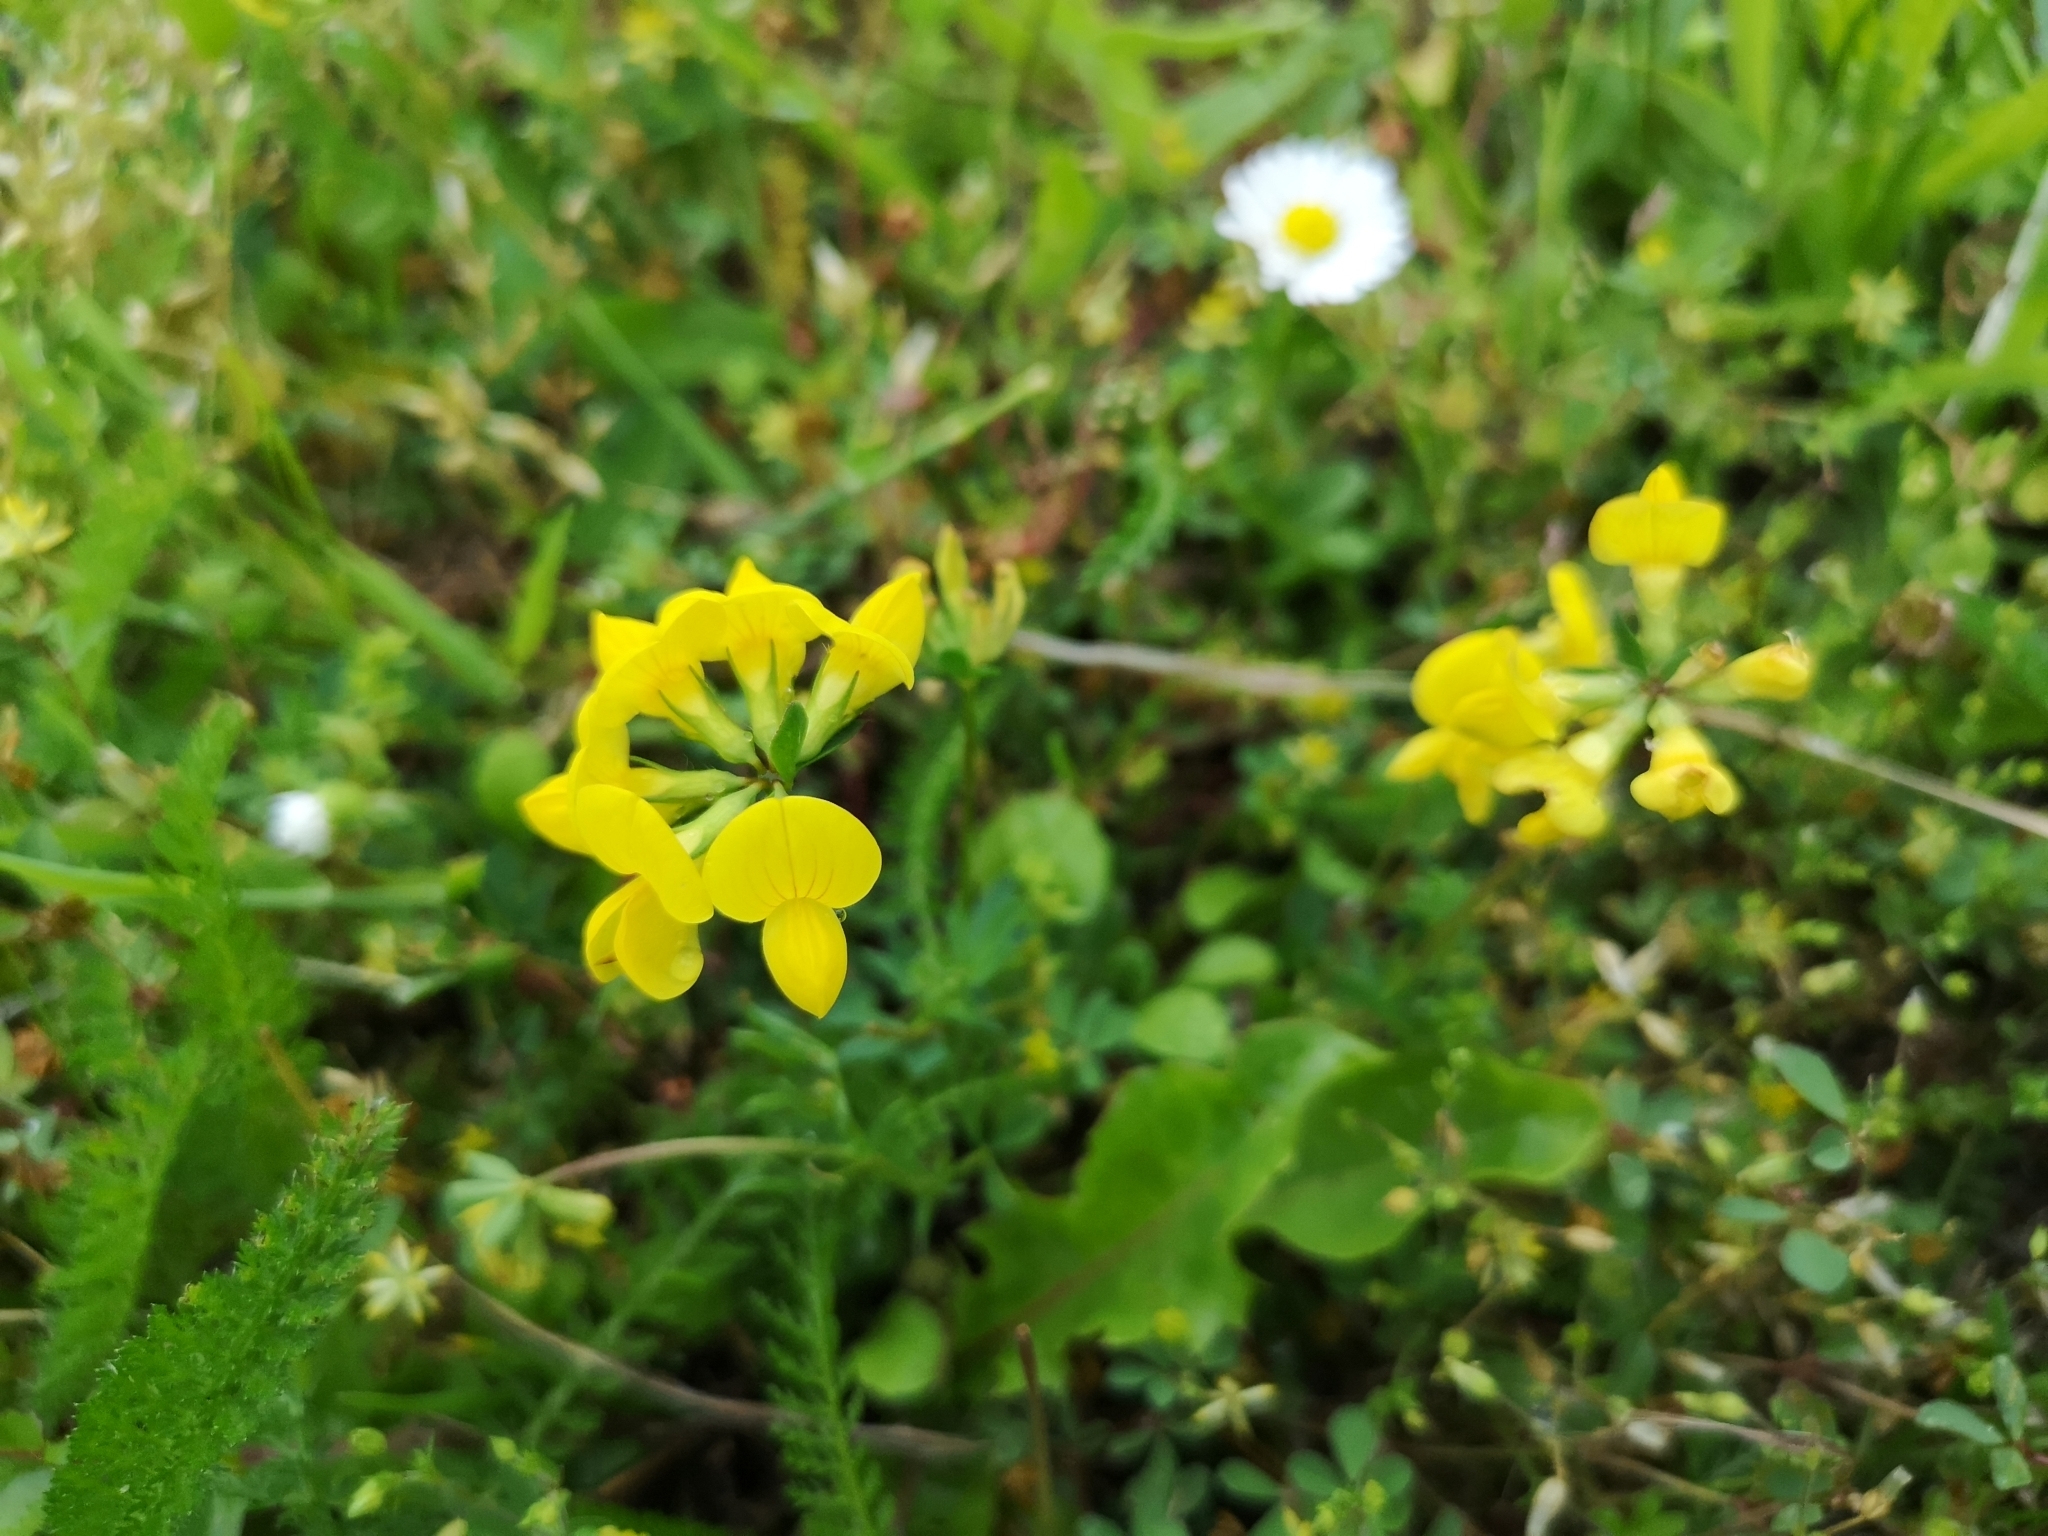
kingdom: Plantae
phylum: Tracheophyta
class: Magnoliopsida
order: Fabales
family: Fabaceae
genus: Lotus
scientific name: Lotus corniculatus
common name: Common bird's-foot-trefoil
